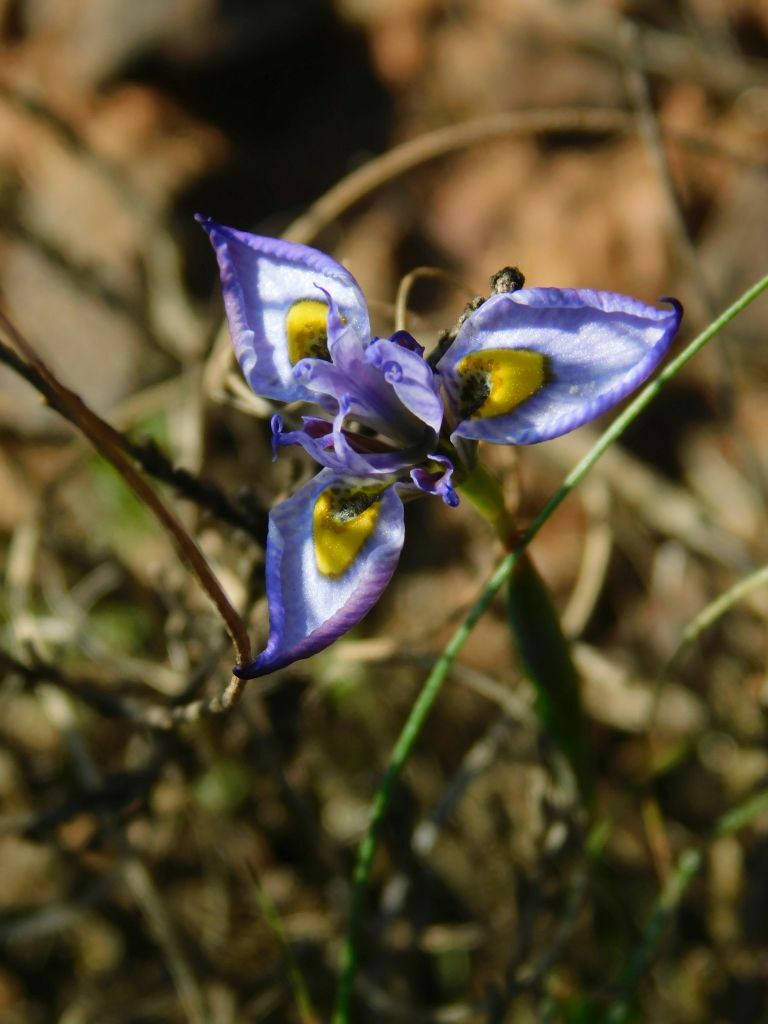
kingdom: Plantae
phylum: Tracheophyta
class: Liliopsida
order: Asparagales
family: Iridaceae
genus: Moraea
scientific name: Moraea fergusoniae
